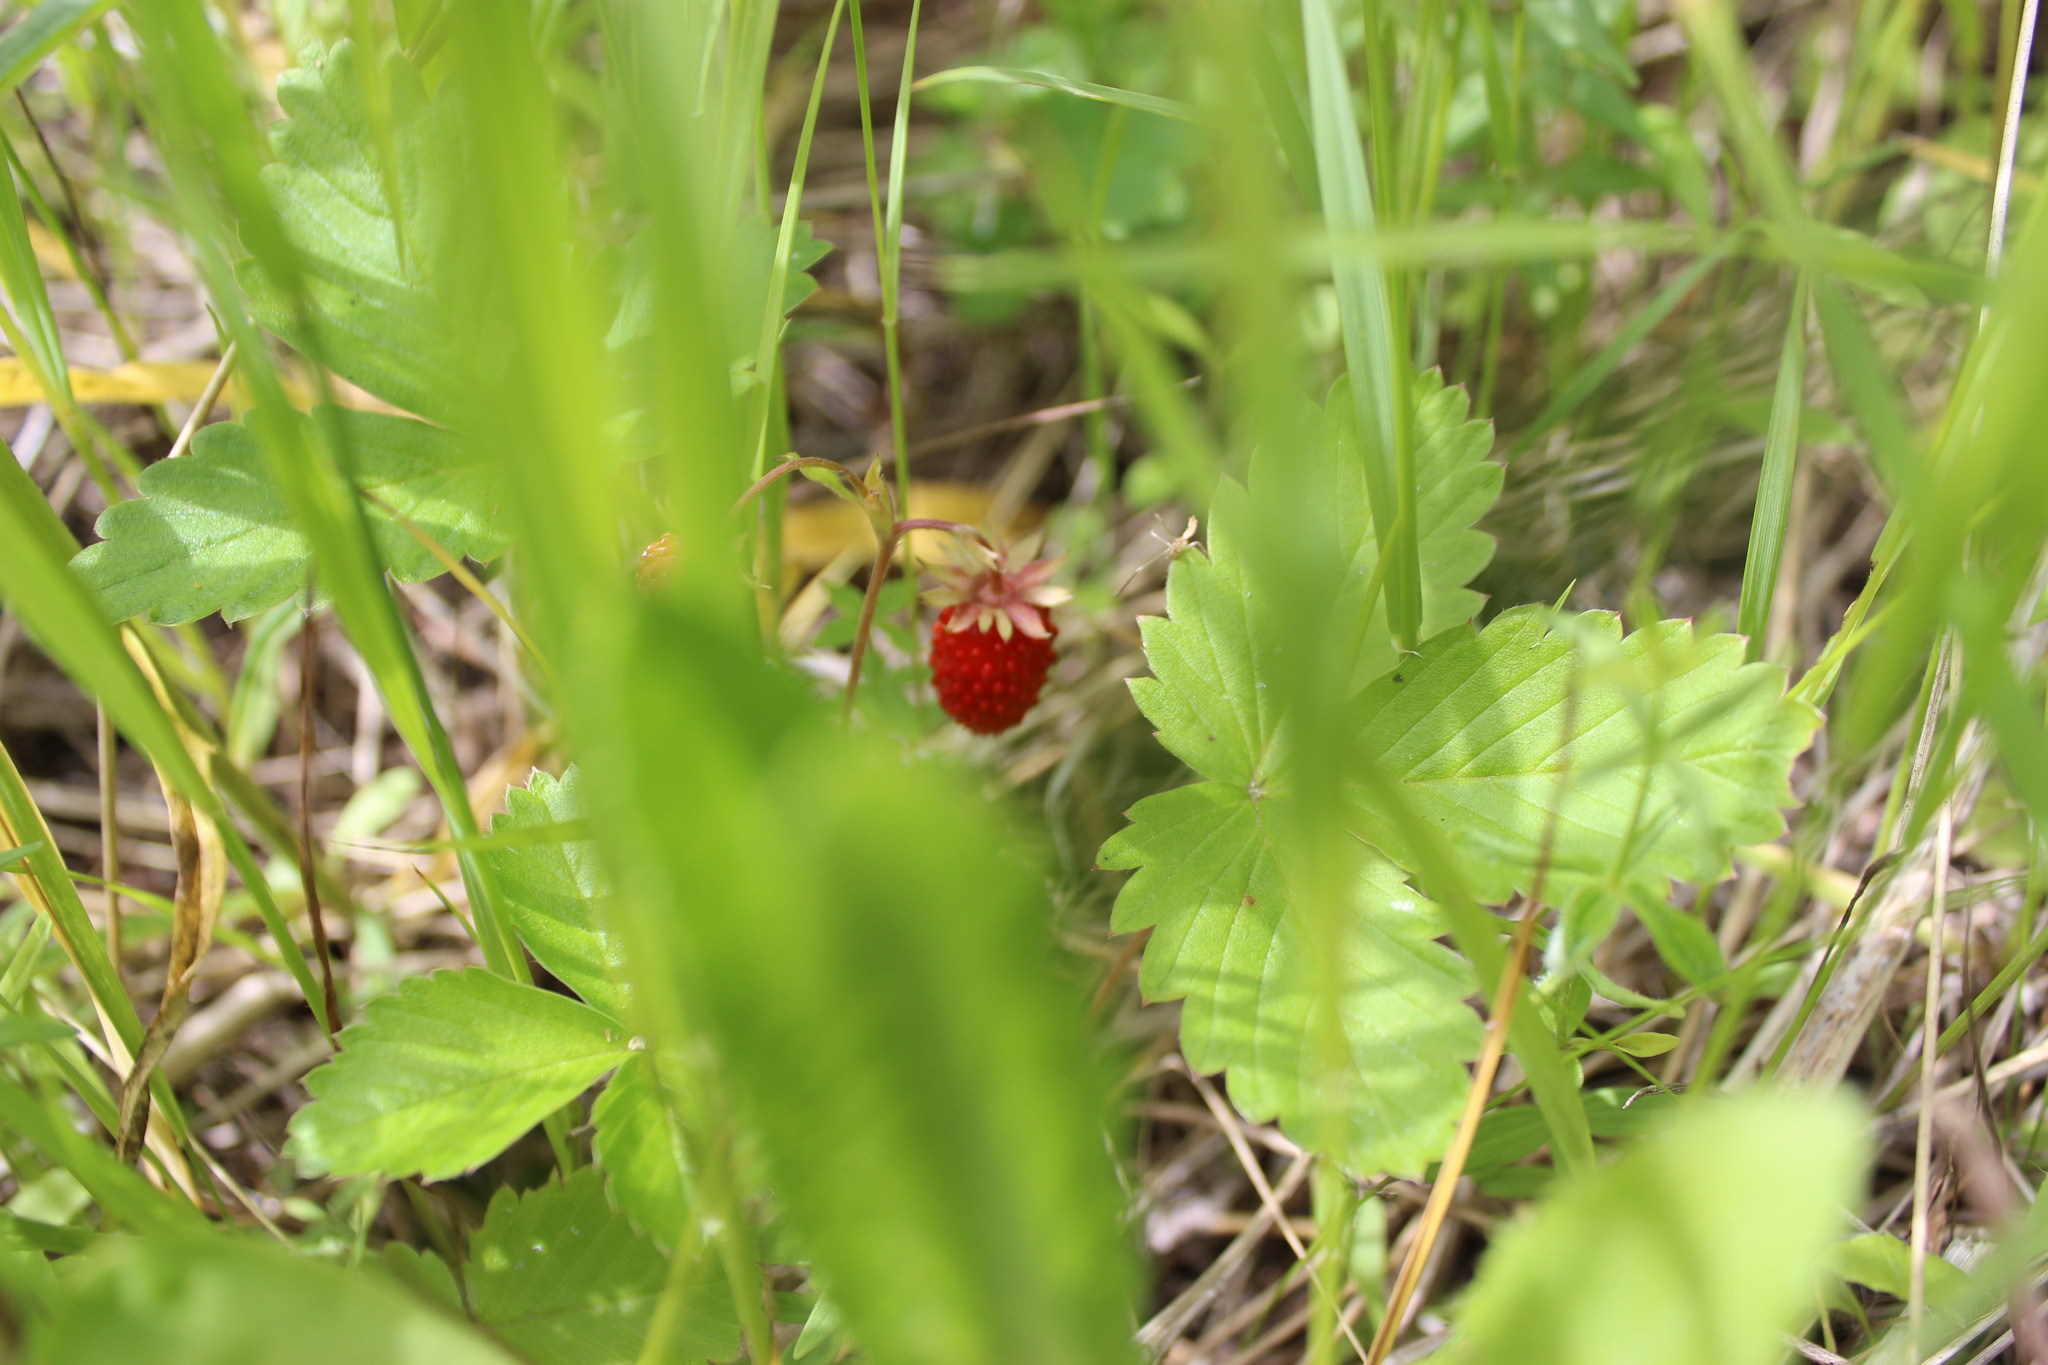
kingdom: Plantae
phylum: Tracheophyta
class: Magnoliopsida
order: Rosales
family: Rosaceae
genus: Fragaria
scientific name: Fragaria vesca
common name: Wild strawberry
